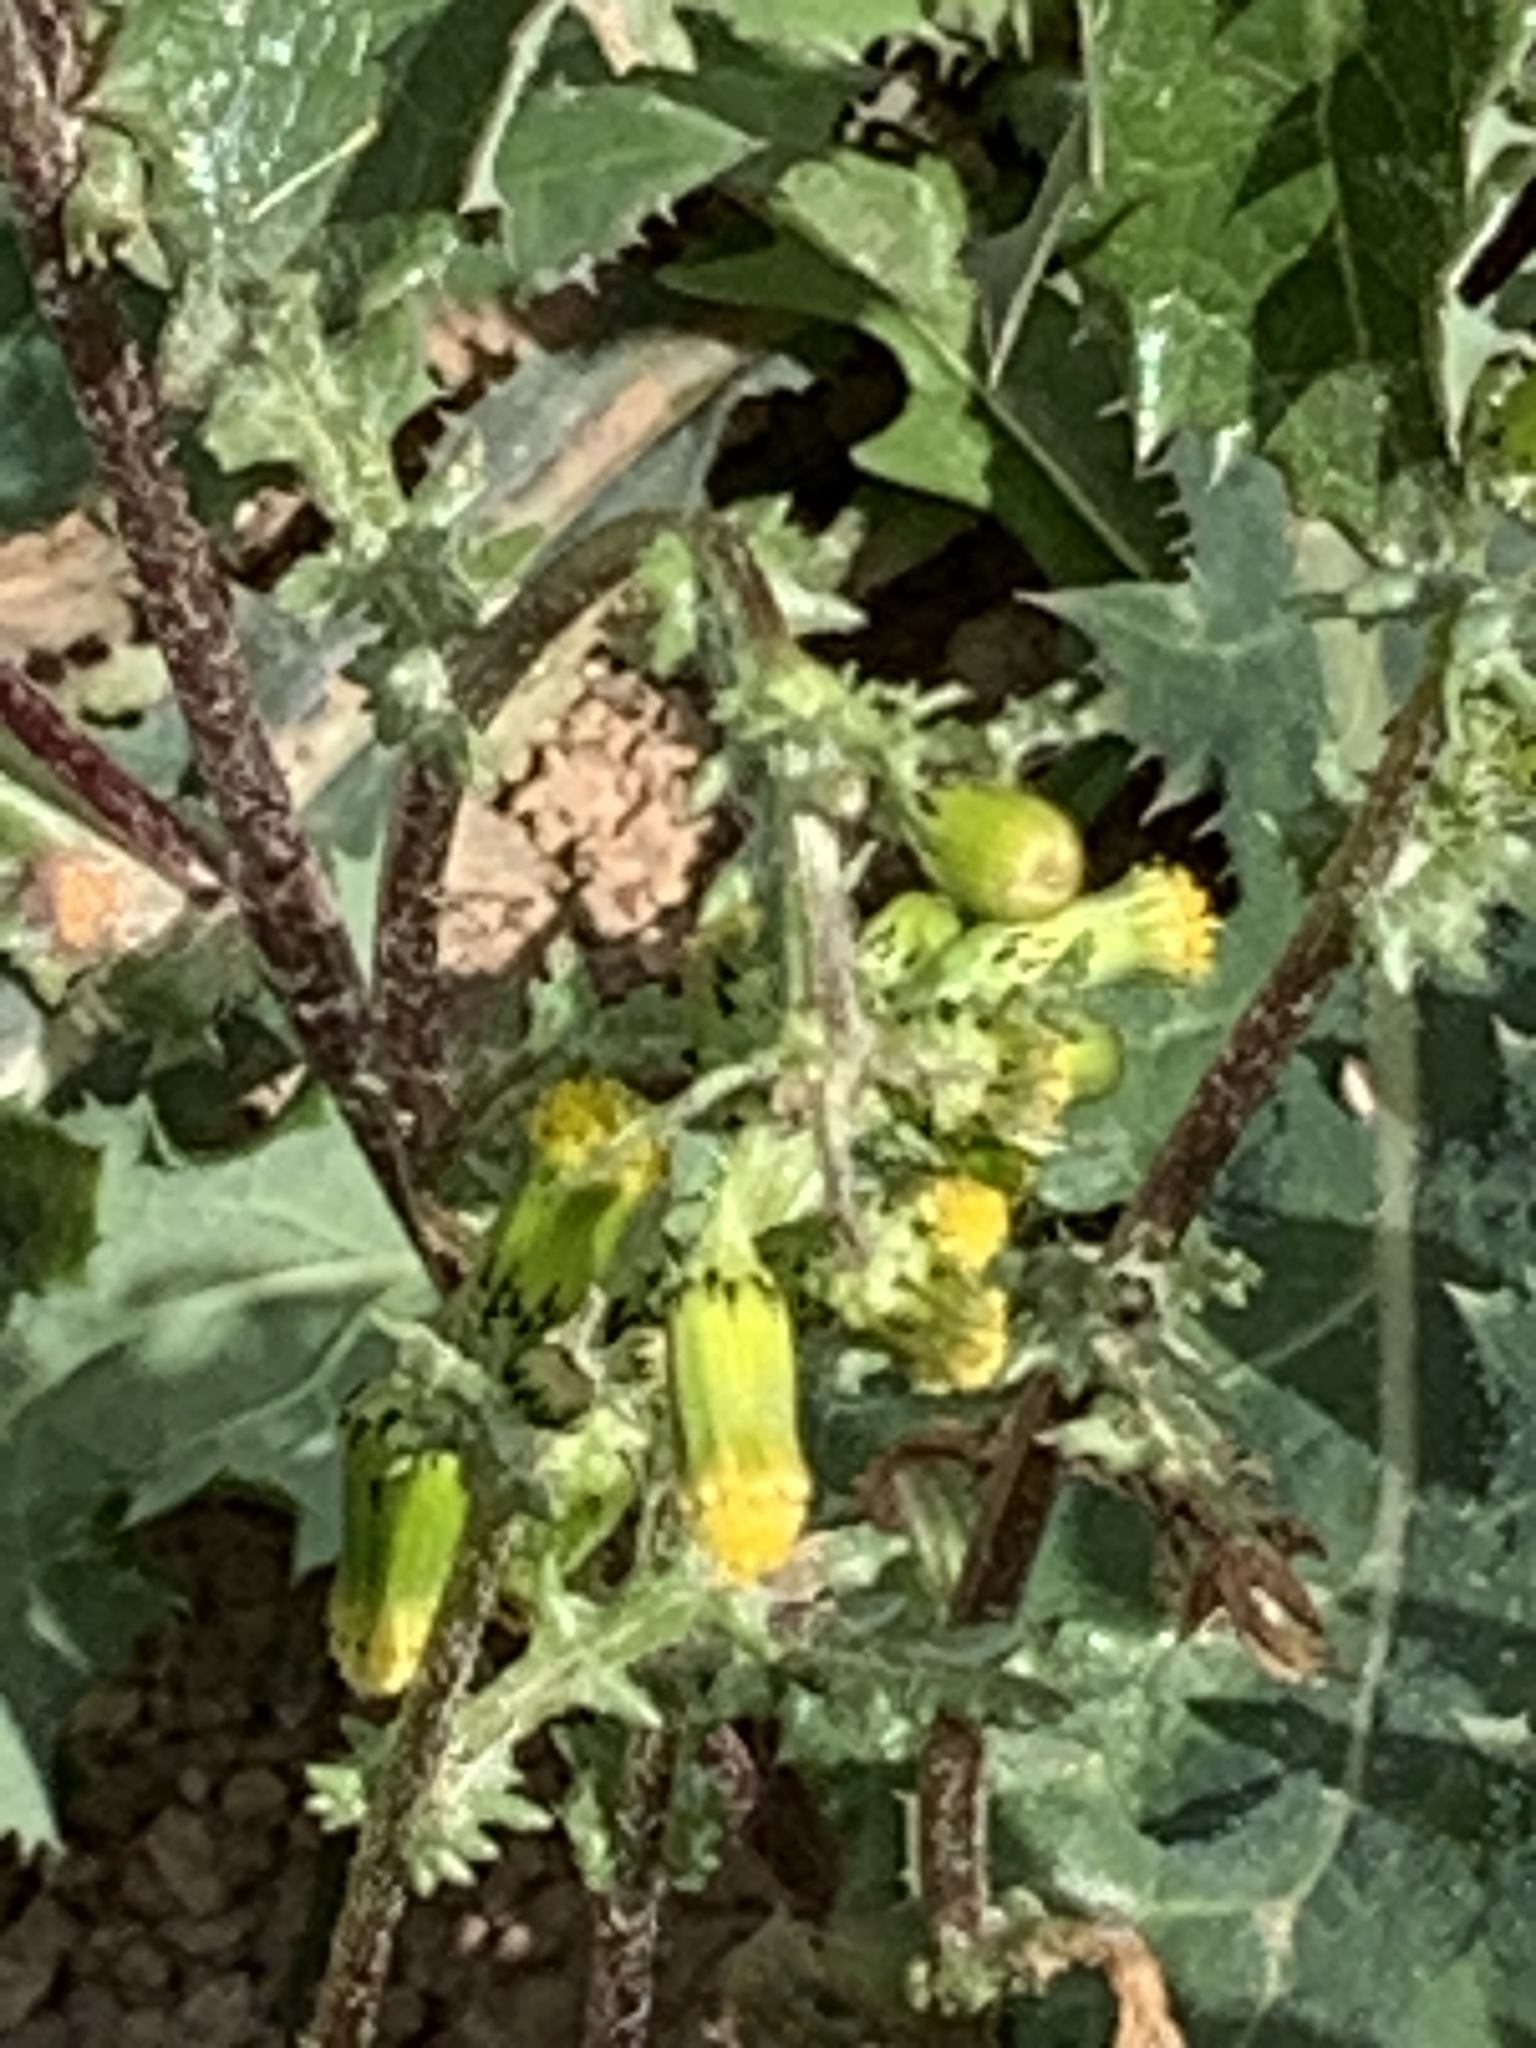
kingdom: Plantae
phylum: Tracheophyta
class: Magnoliopsida
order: Asterales
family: Asteraceae
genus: Senecio
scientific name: Senecio vulgaris
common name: Old-man-in-the-spring
